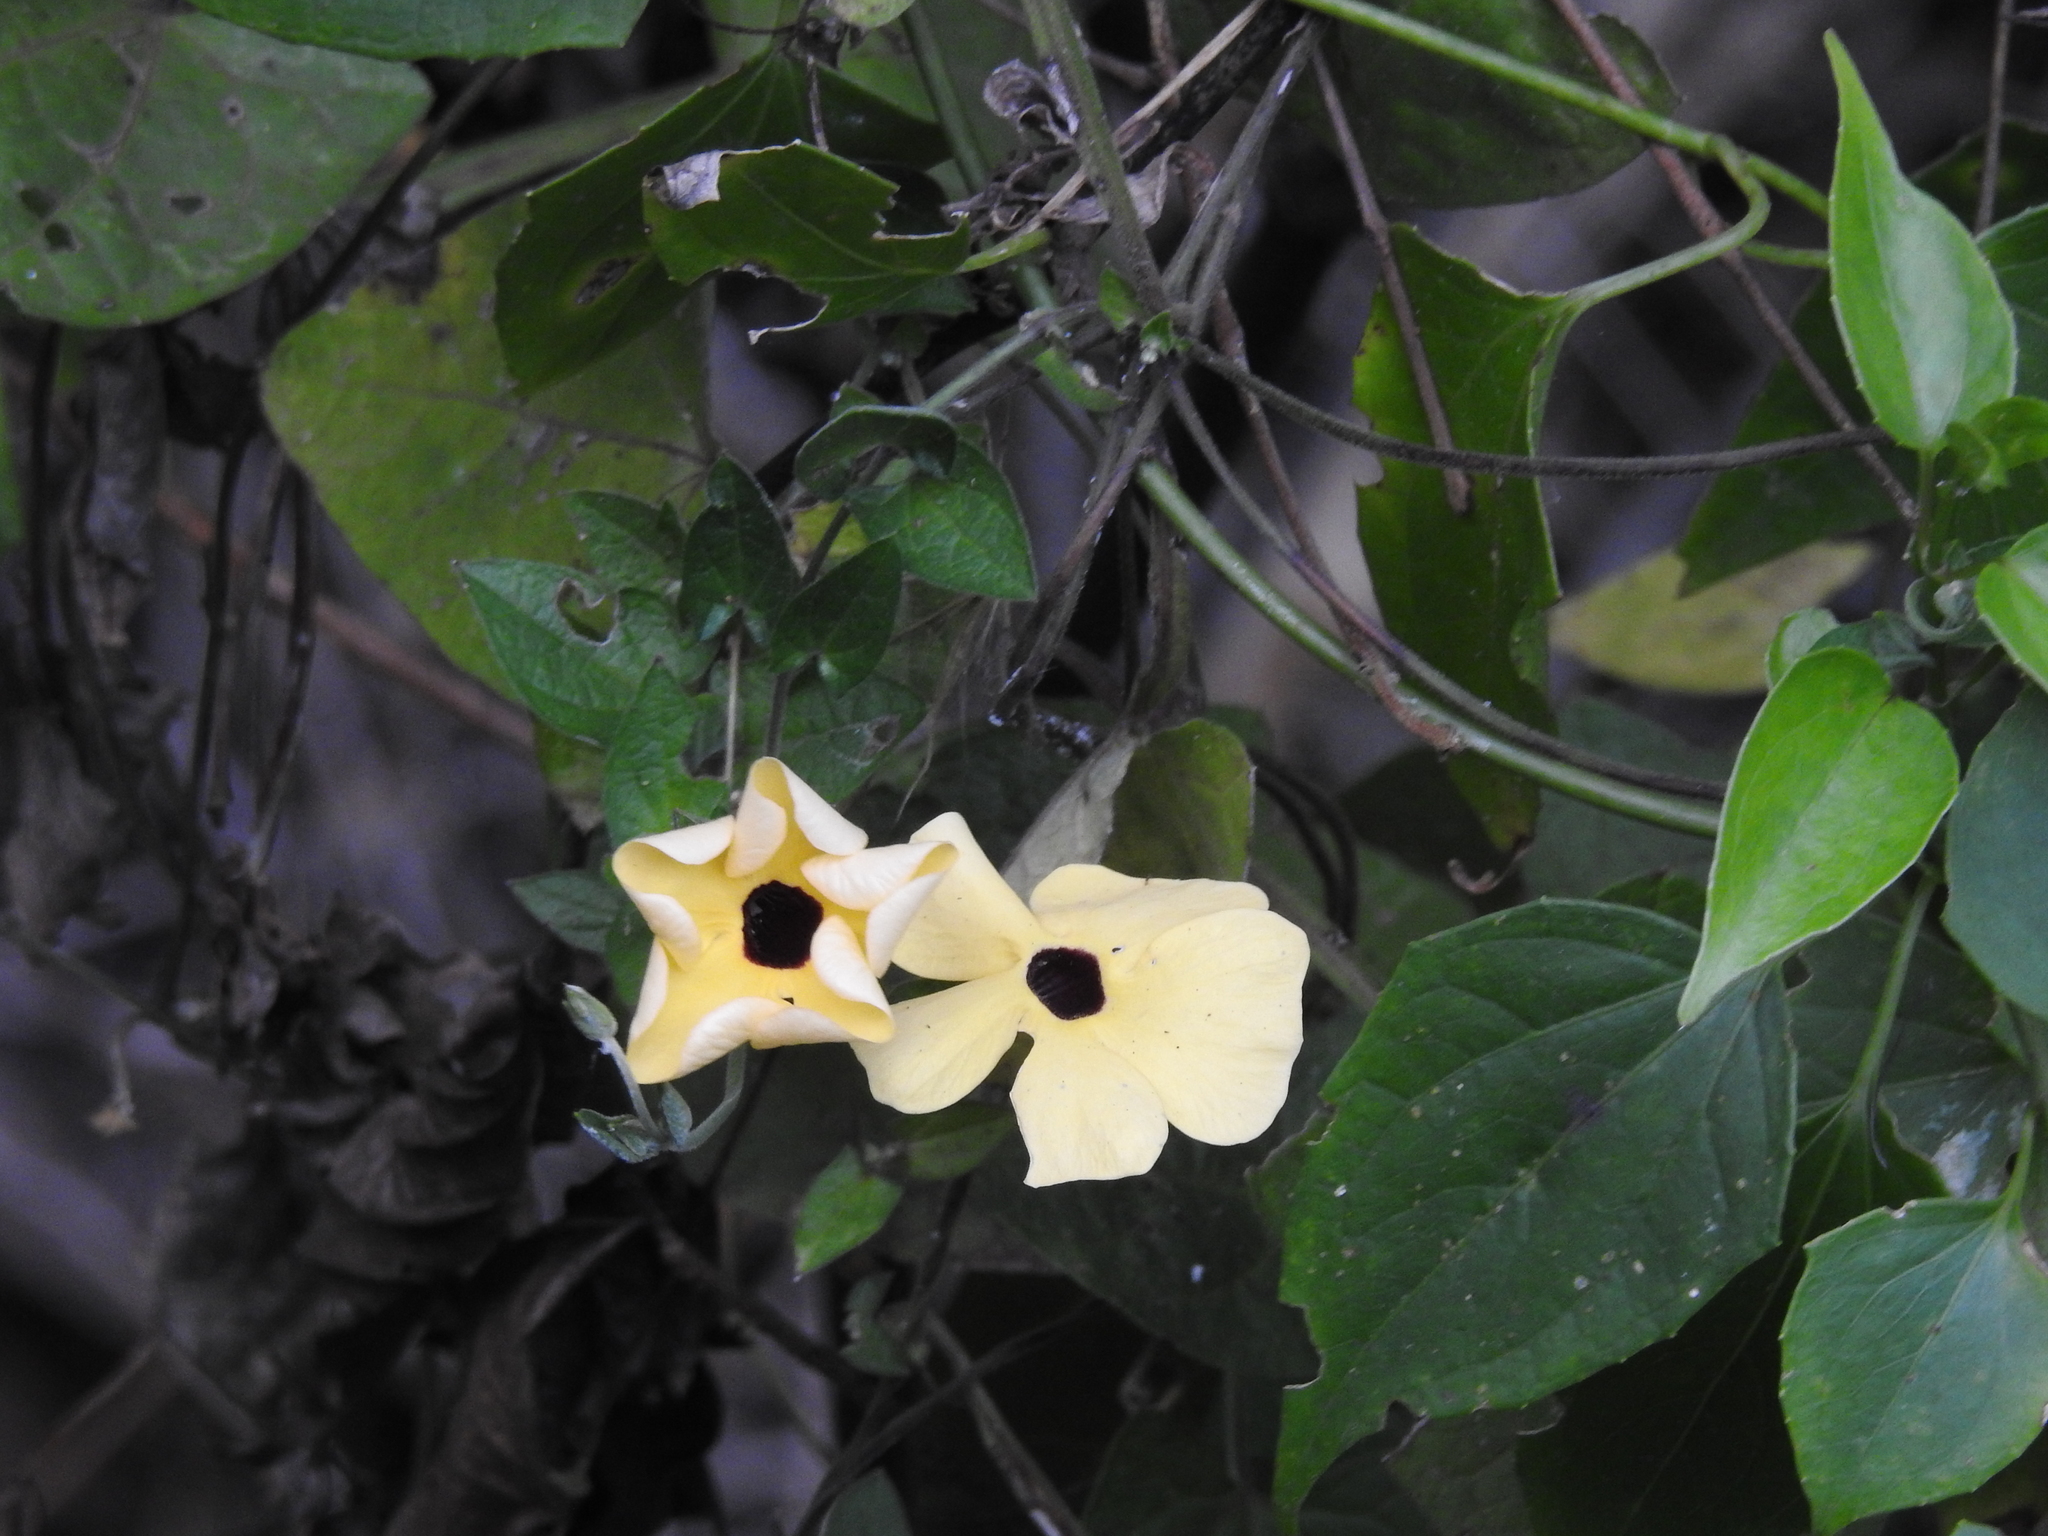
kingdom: Plantae
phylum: Tracheophyta
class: Magnoliopsida
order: Lamiales
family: Acanthaceae
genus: Thunbergia
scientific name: Thunbergia alata
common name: Blackeyed susan vine
